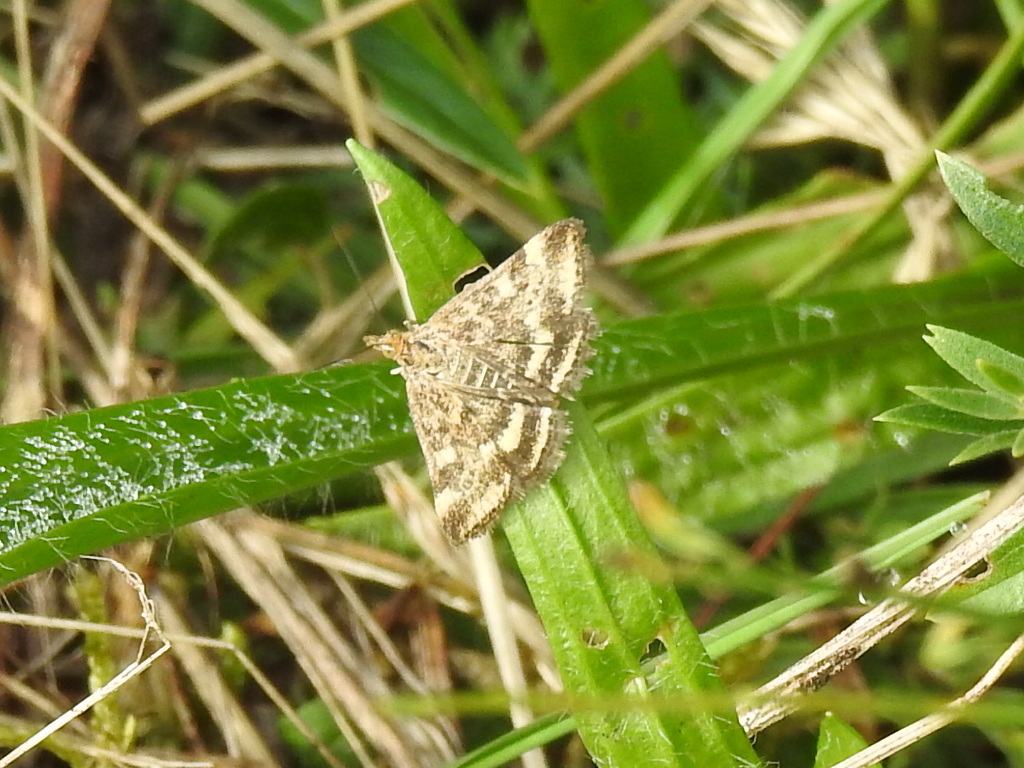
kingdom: Animalia
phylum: Arthropoda
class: Insecta
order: Lepidoptera
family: Crambidae
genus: Pyrausta
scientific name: Pyrausta despicata
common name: Straw-barred pearl
